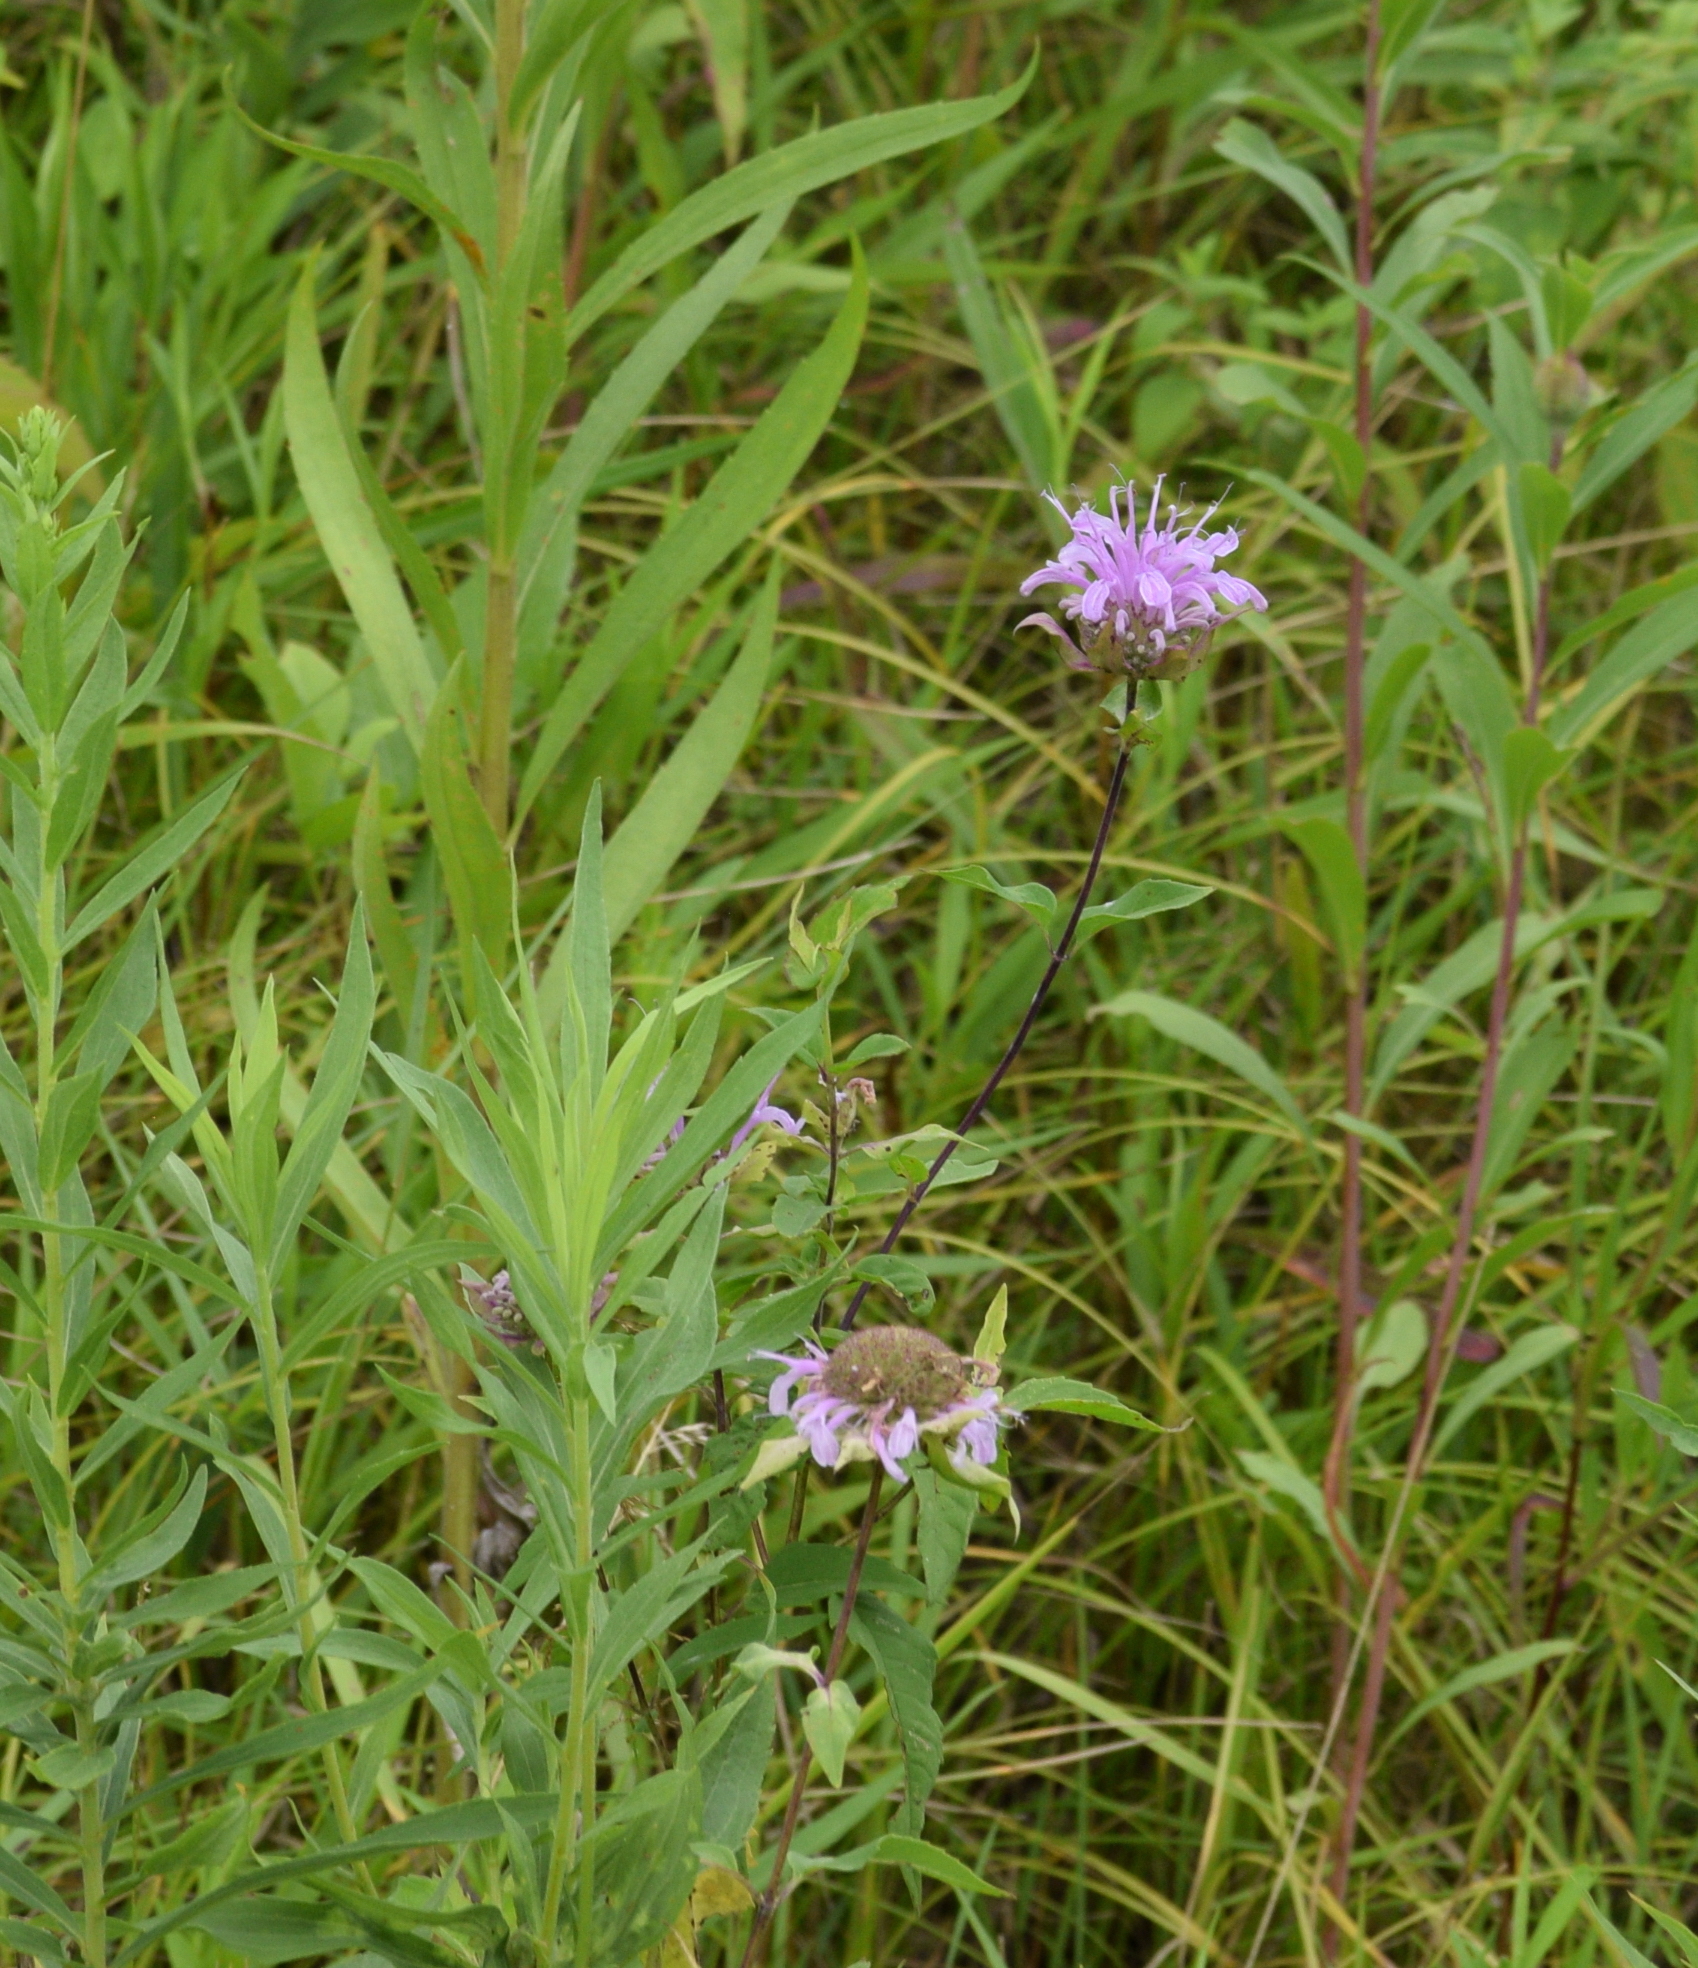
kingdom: Plantae
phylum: Tracheophyta
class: Magnoliopsida
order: Lamiales
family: Lamiaceae
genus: Monarda
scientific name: Monarda fistulosa
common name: Purple beebalm
